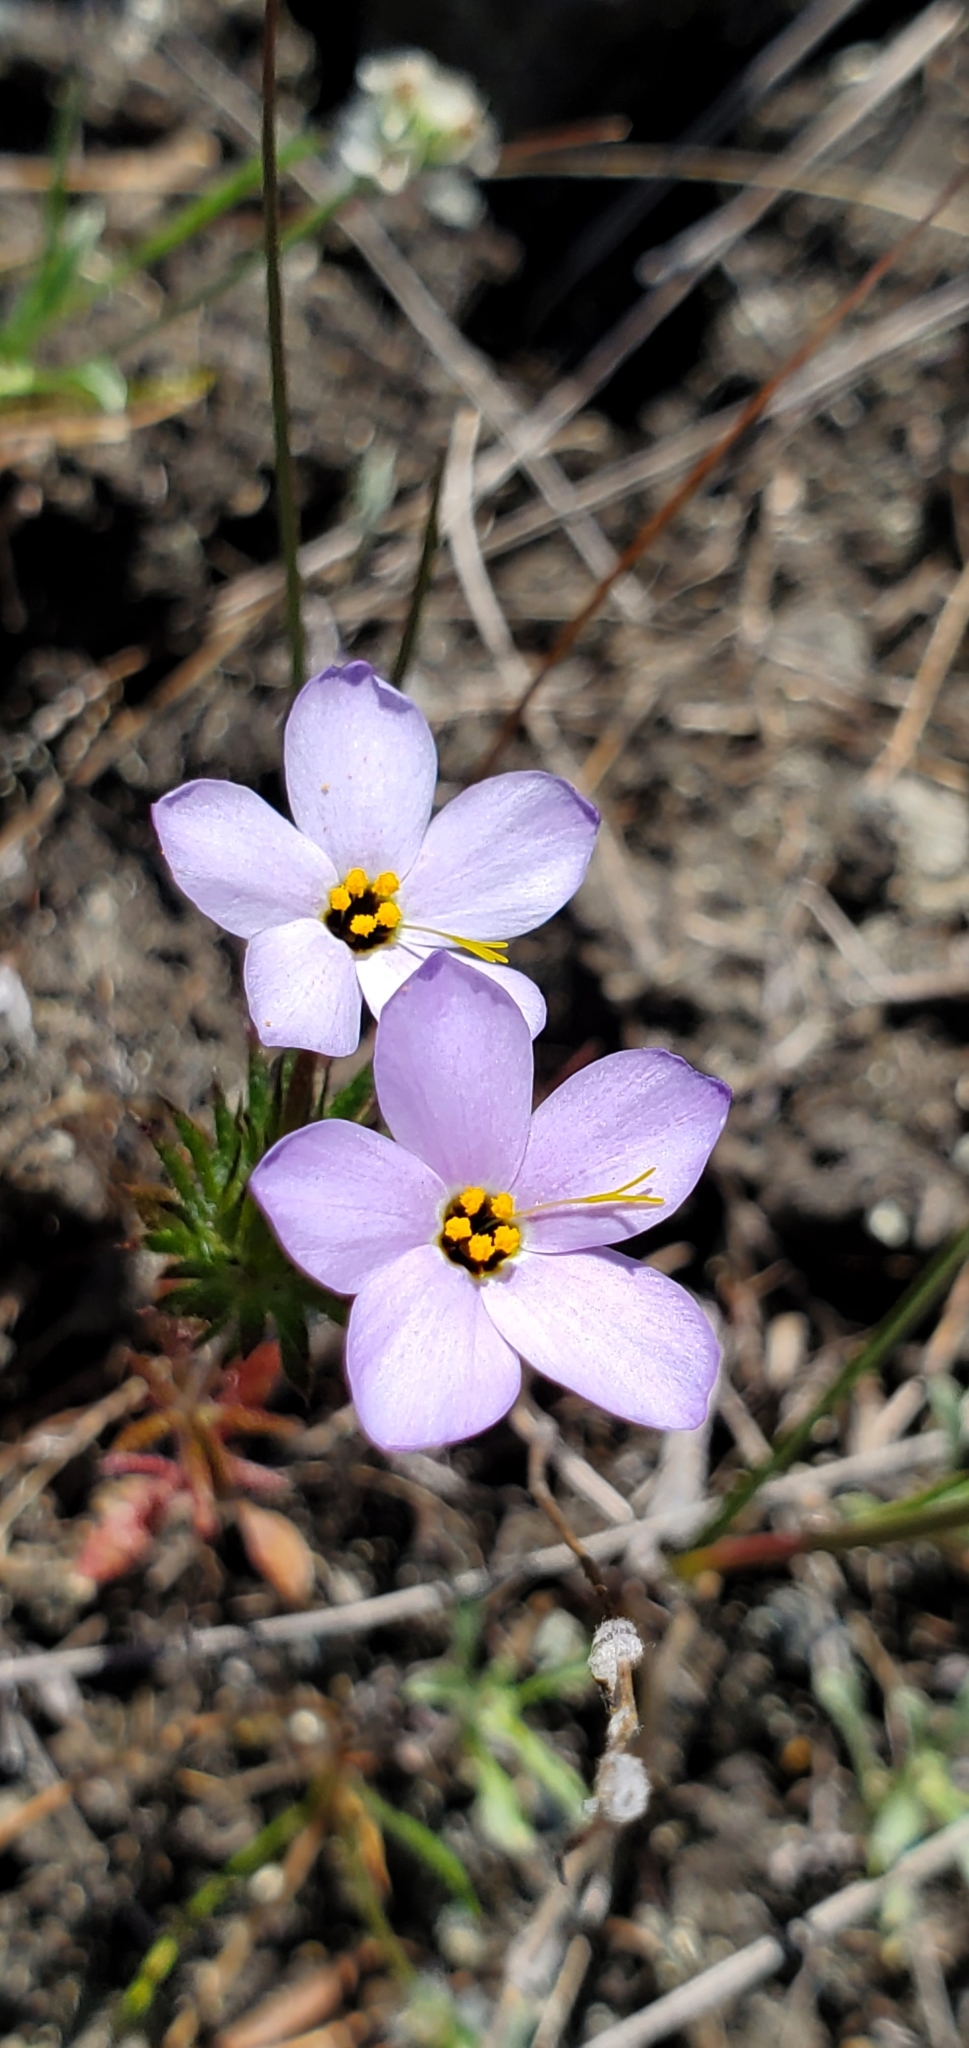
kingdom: Plantae
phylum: Tracheophyta
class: Magnoliopsida
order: Ericales
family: Polemoniaceae
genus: Leptosiphon
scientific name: Leptosiphon androsaceus
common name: False babystars
